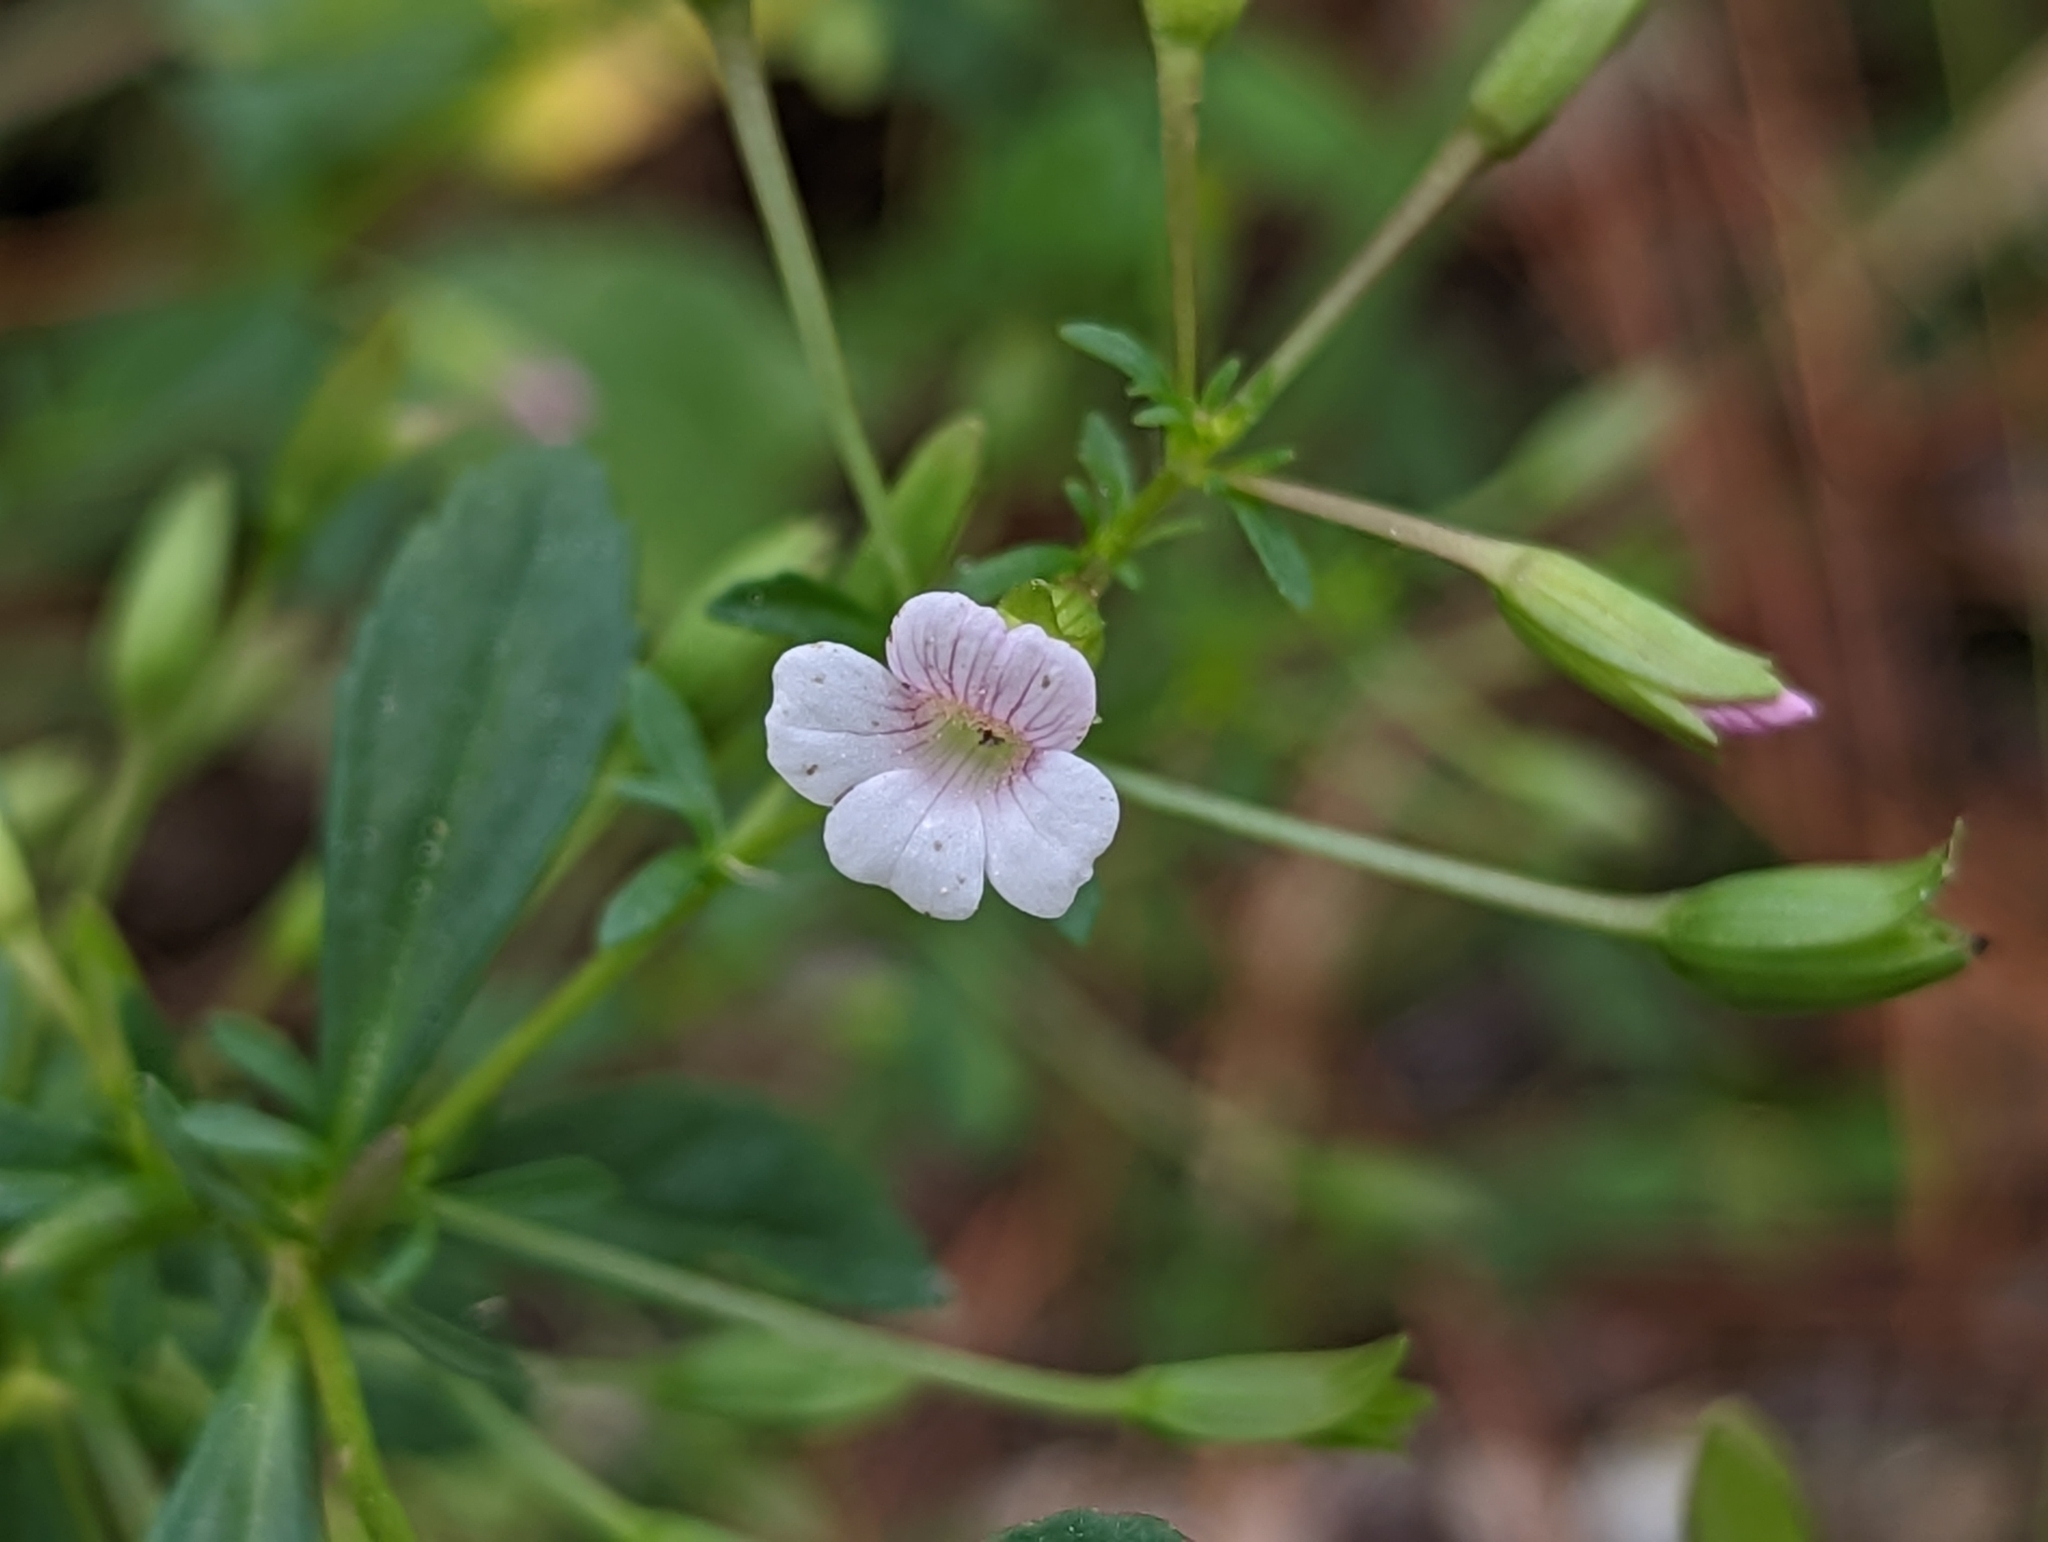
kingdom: Plantae
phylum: Tracheophyta
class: Magnoliopsida
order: Lamiales
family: Plantaginaceae
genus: Mecardonia
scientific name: Mecardonia acuminata
